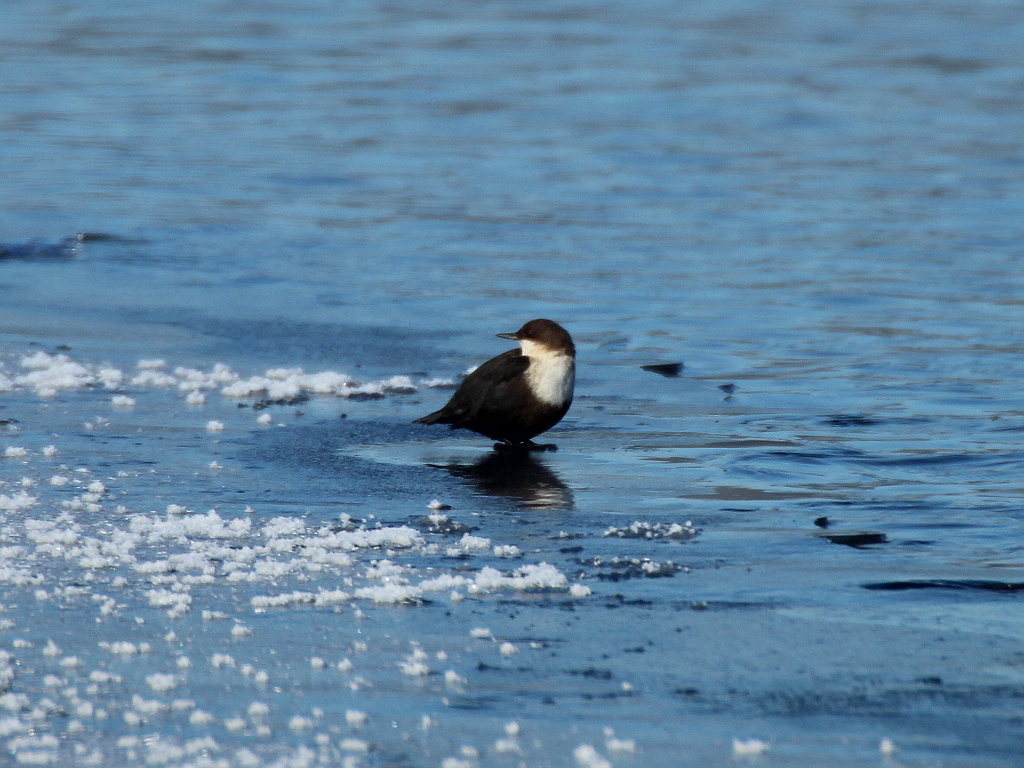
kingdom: Animalia
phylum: Chordata
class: Aves
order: Passeriformes
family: Cinclidae
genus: Cinclus
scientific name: Cinclus cinclus
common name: White-throated dipper
